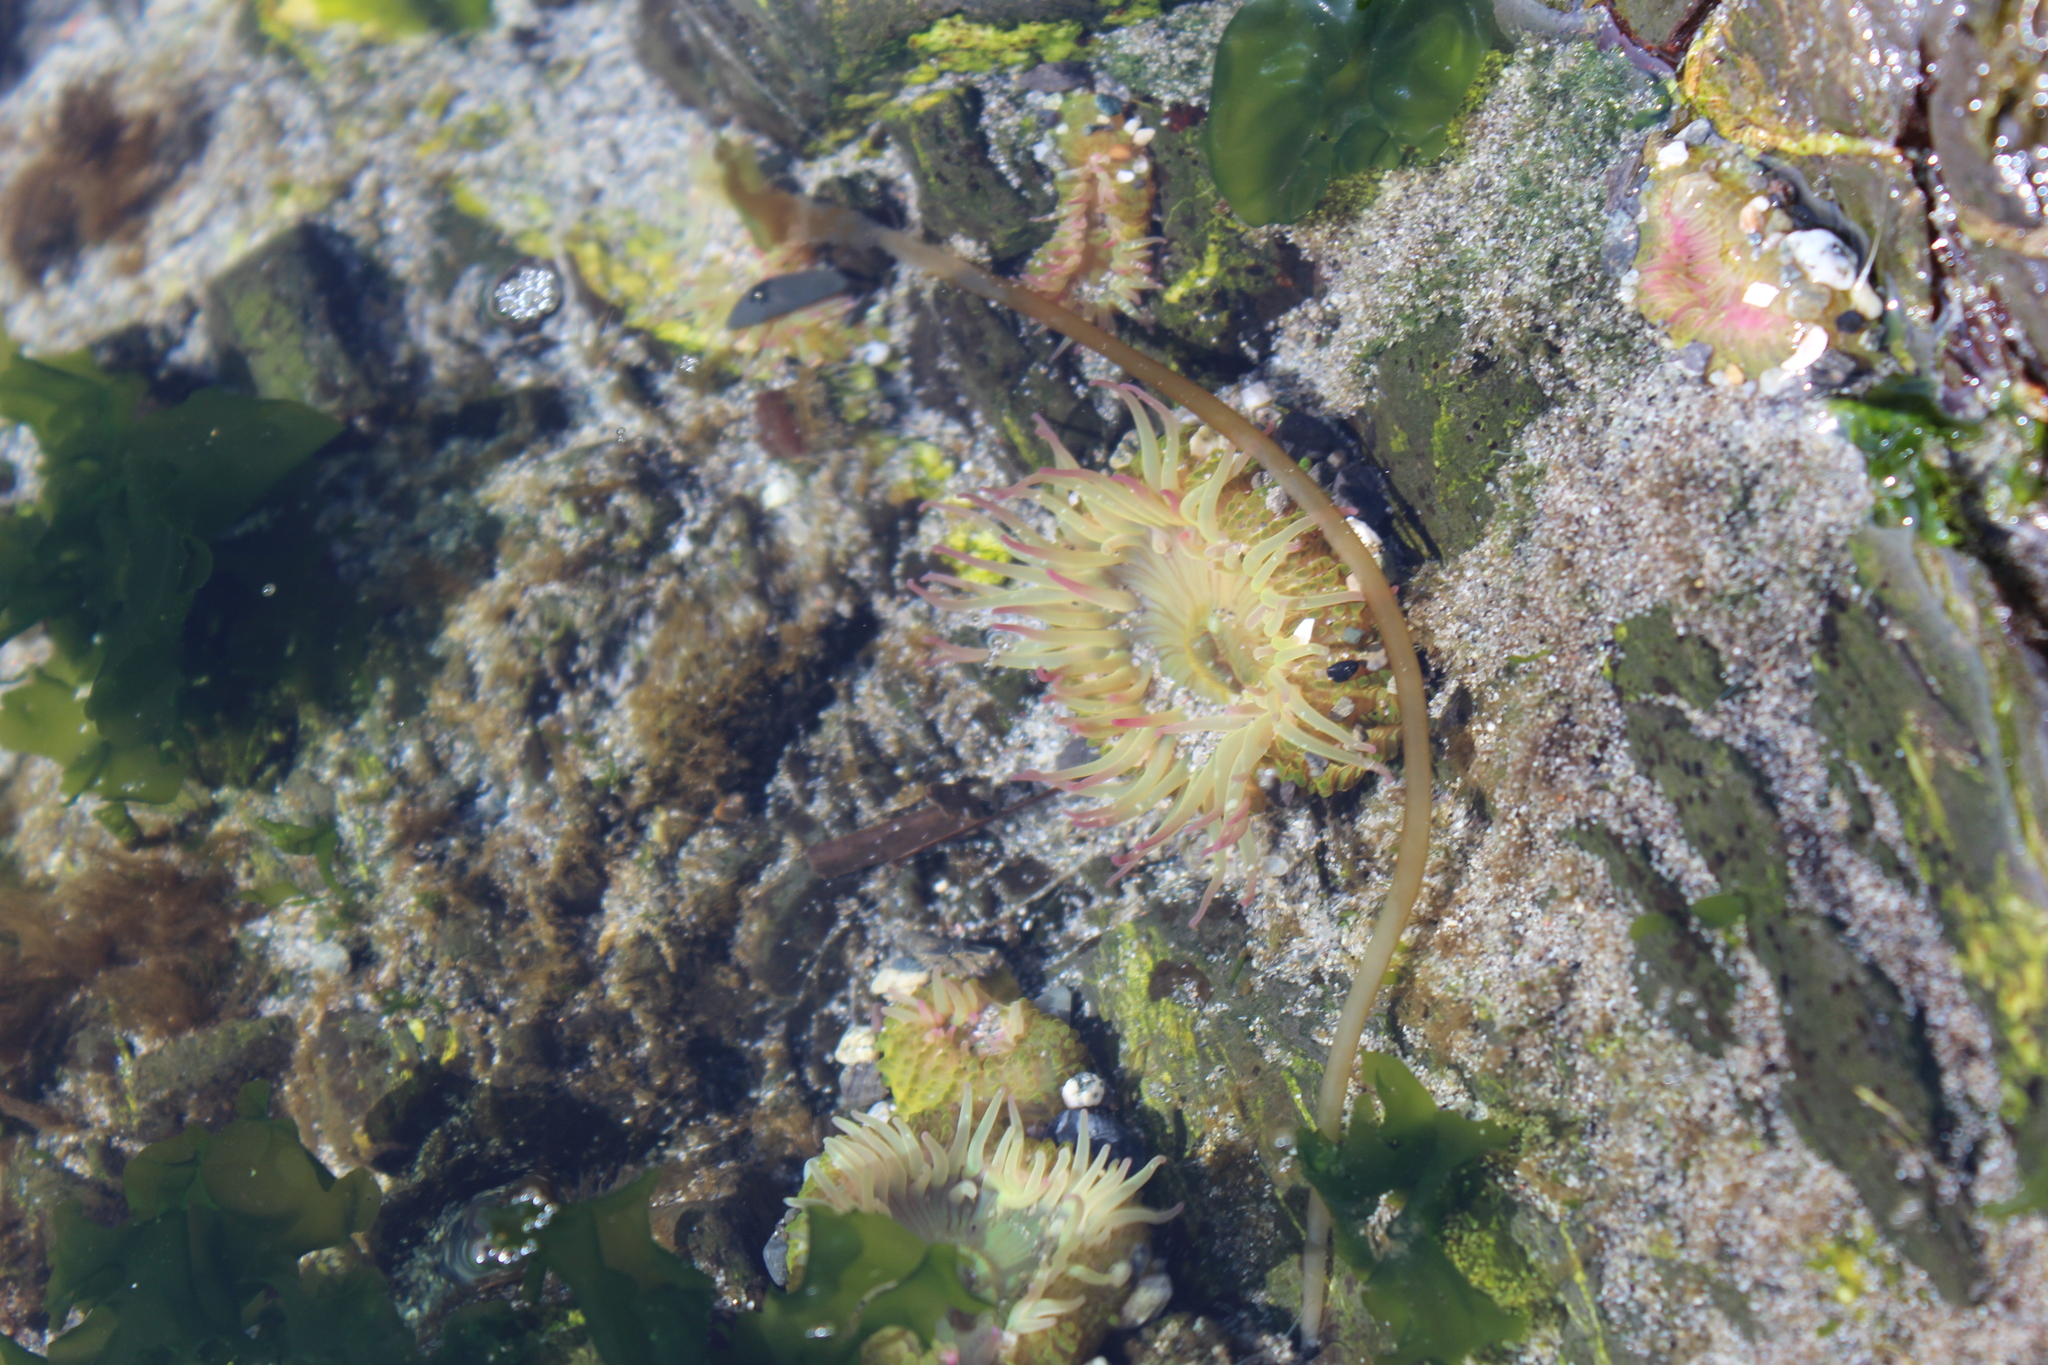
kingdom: Animalia
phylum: Cnidaria
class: Anthozoa
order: Actiniaria
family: Actiniidae
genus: Anthopleura
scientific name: Anthopleura elegantissima
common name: Clonal anemone
